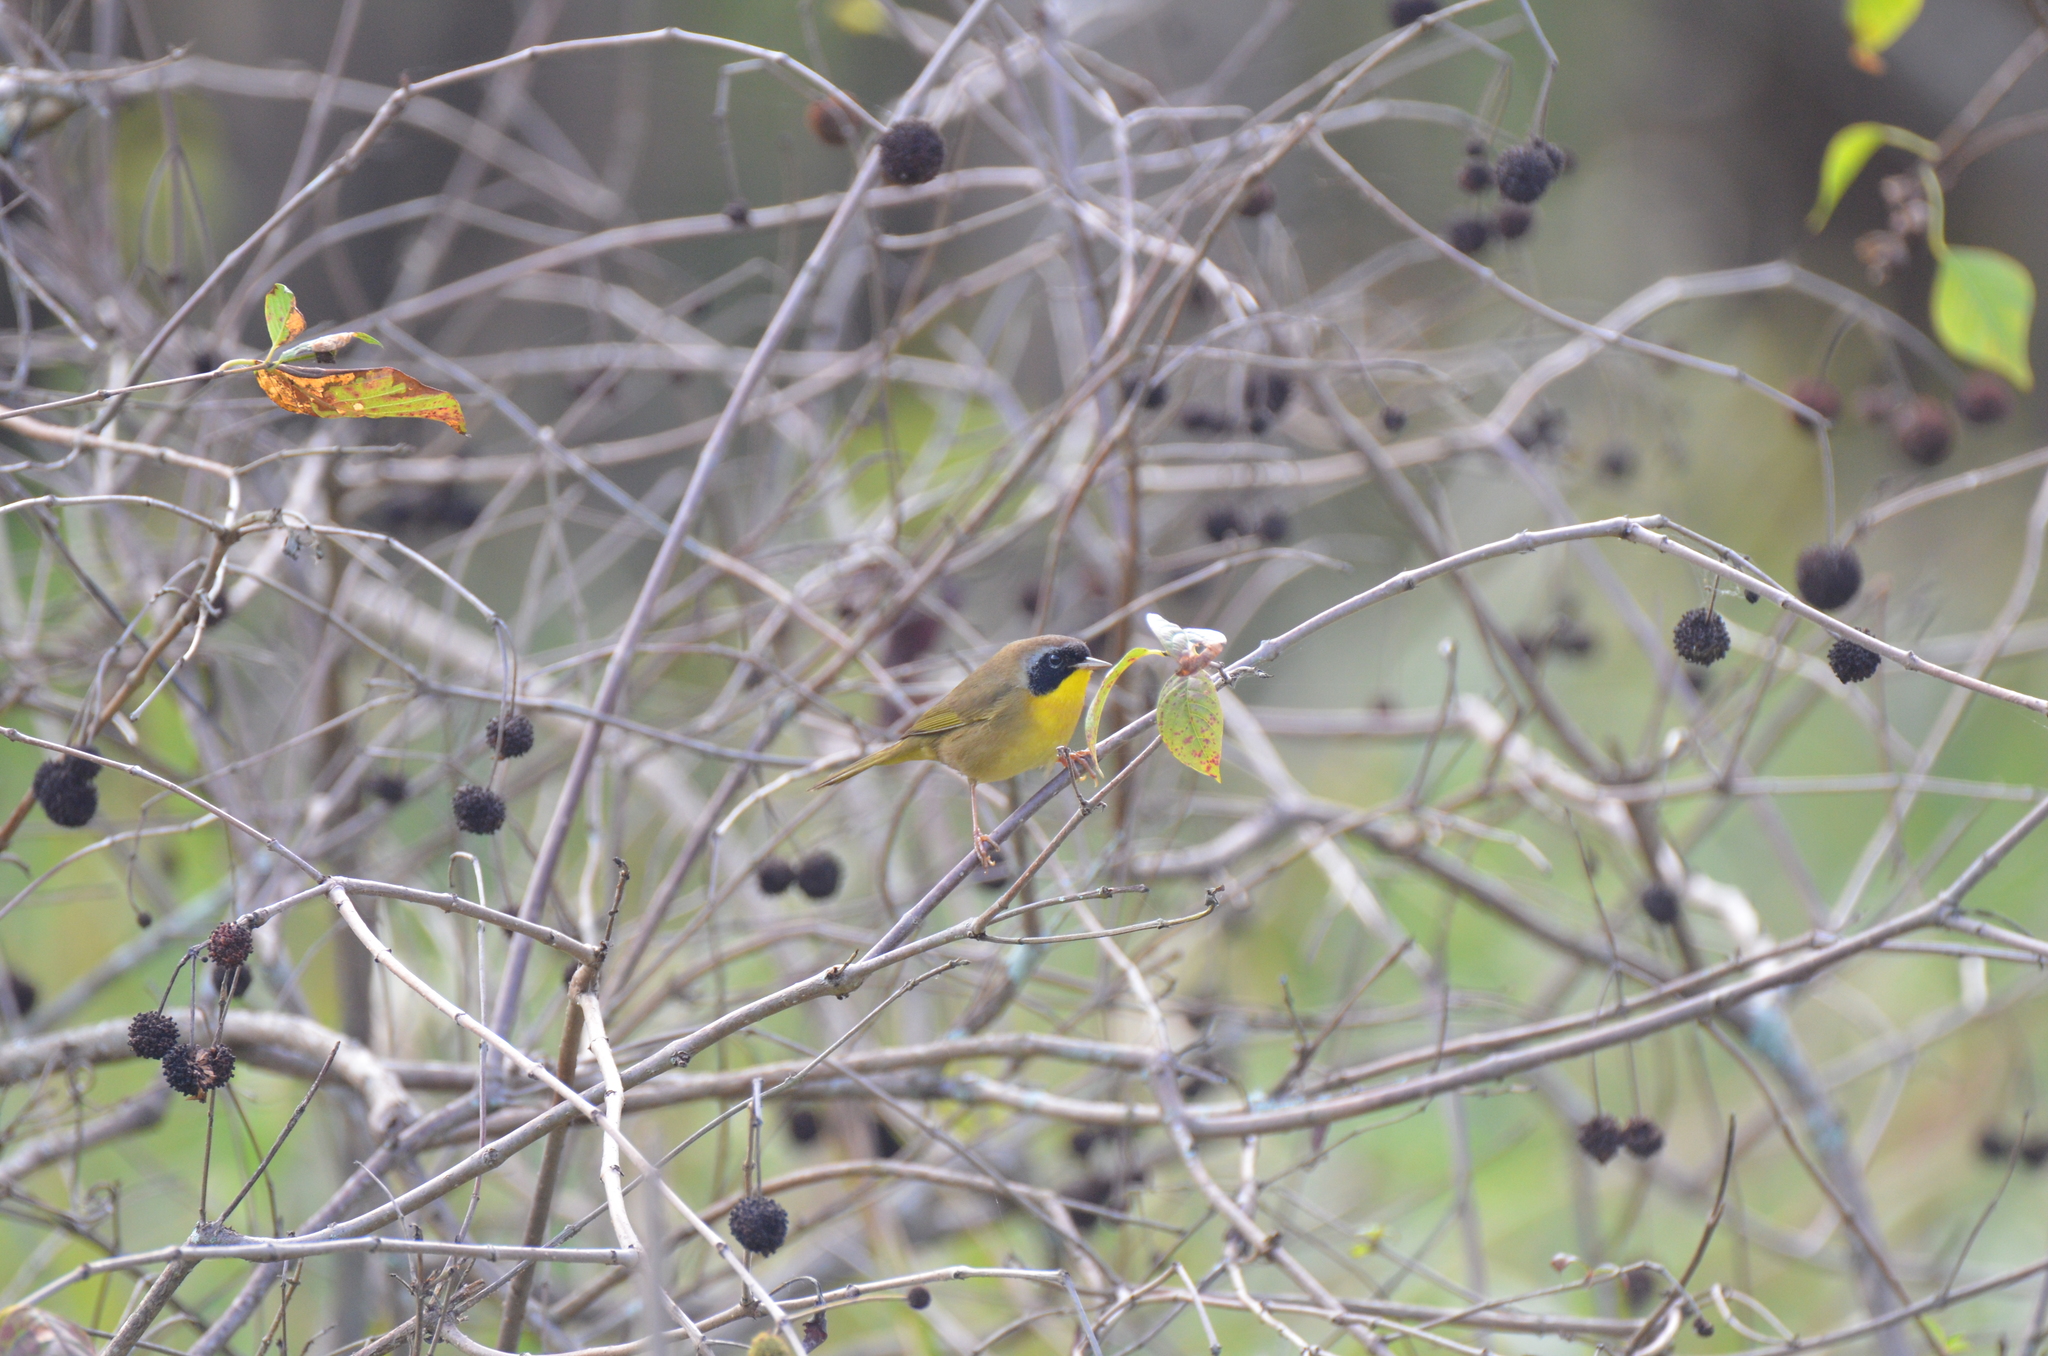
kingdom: Animalia
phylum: Chordata
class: Aves
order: Passeriformes
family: Parulidae
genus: Geothlypis
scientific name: Geothlypis trichas
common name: Common yellowthroat
